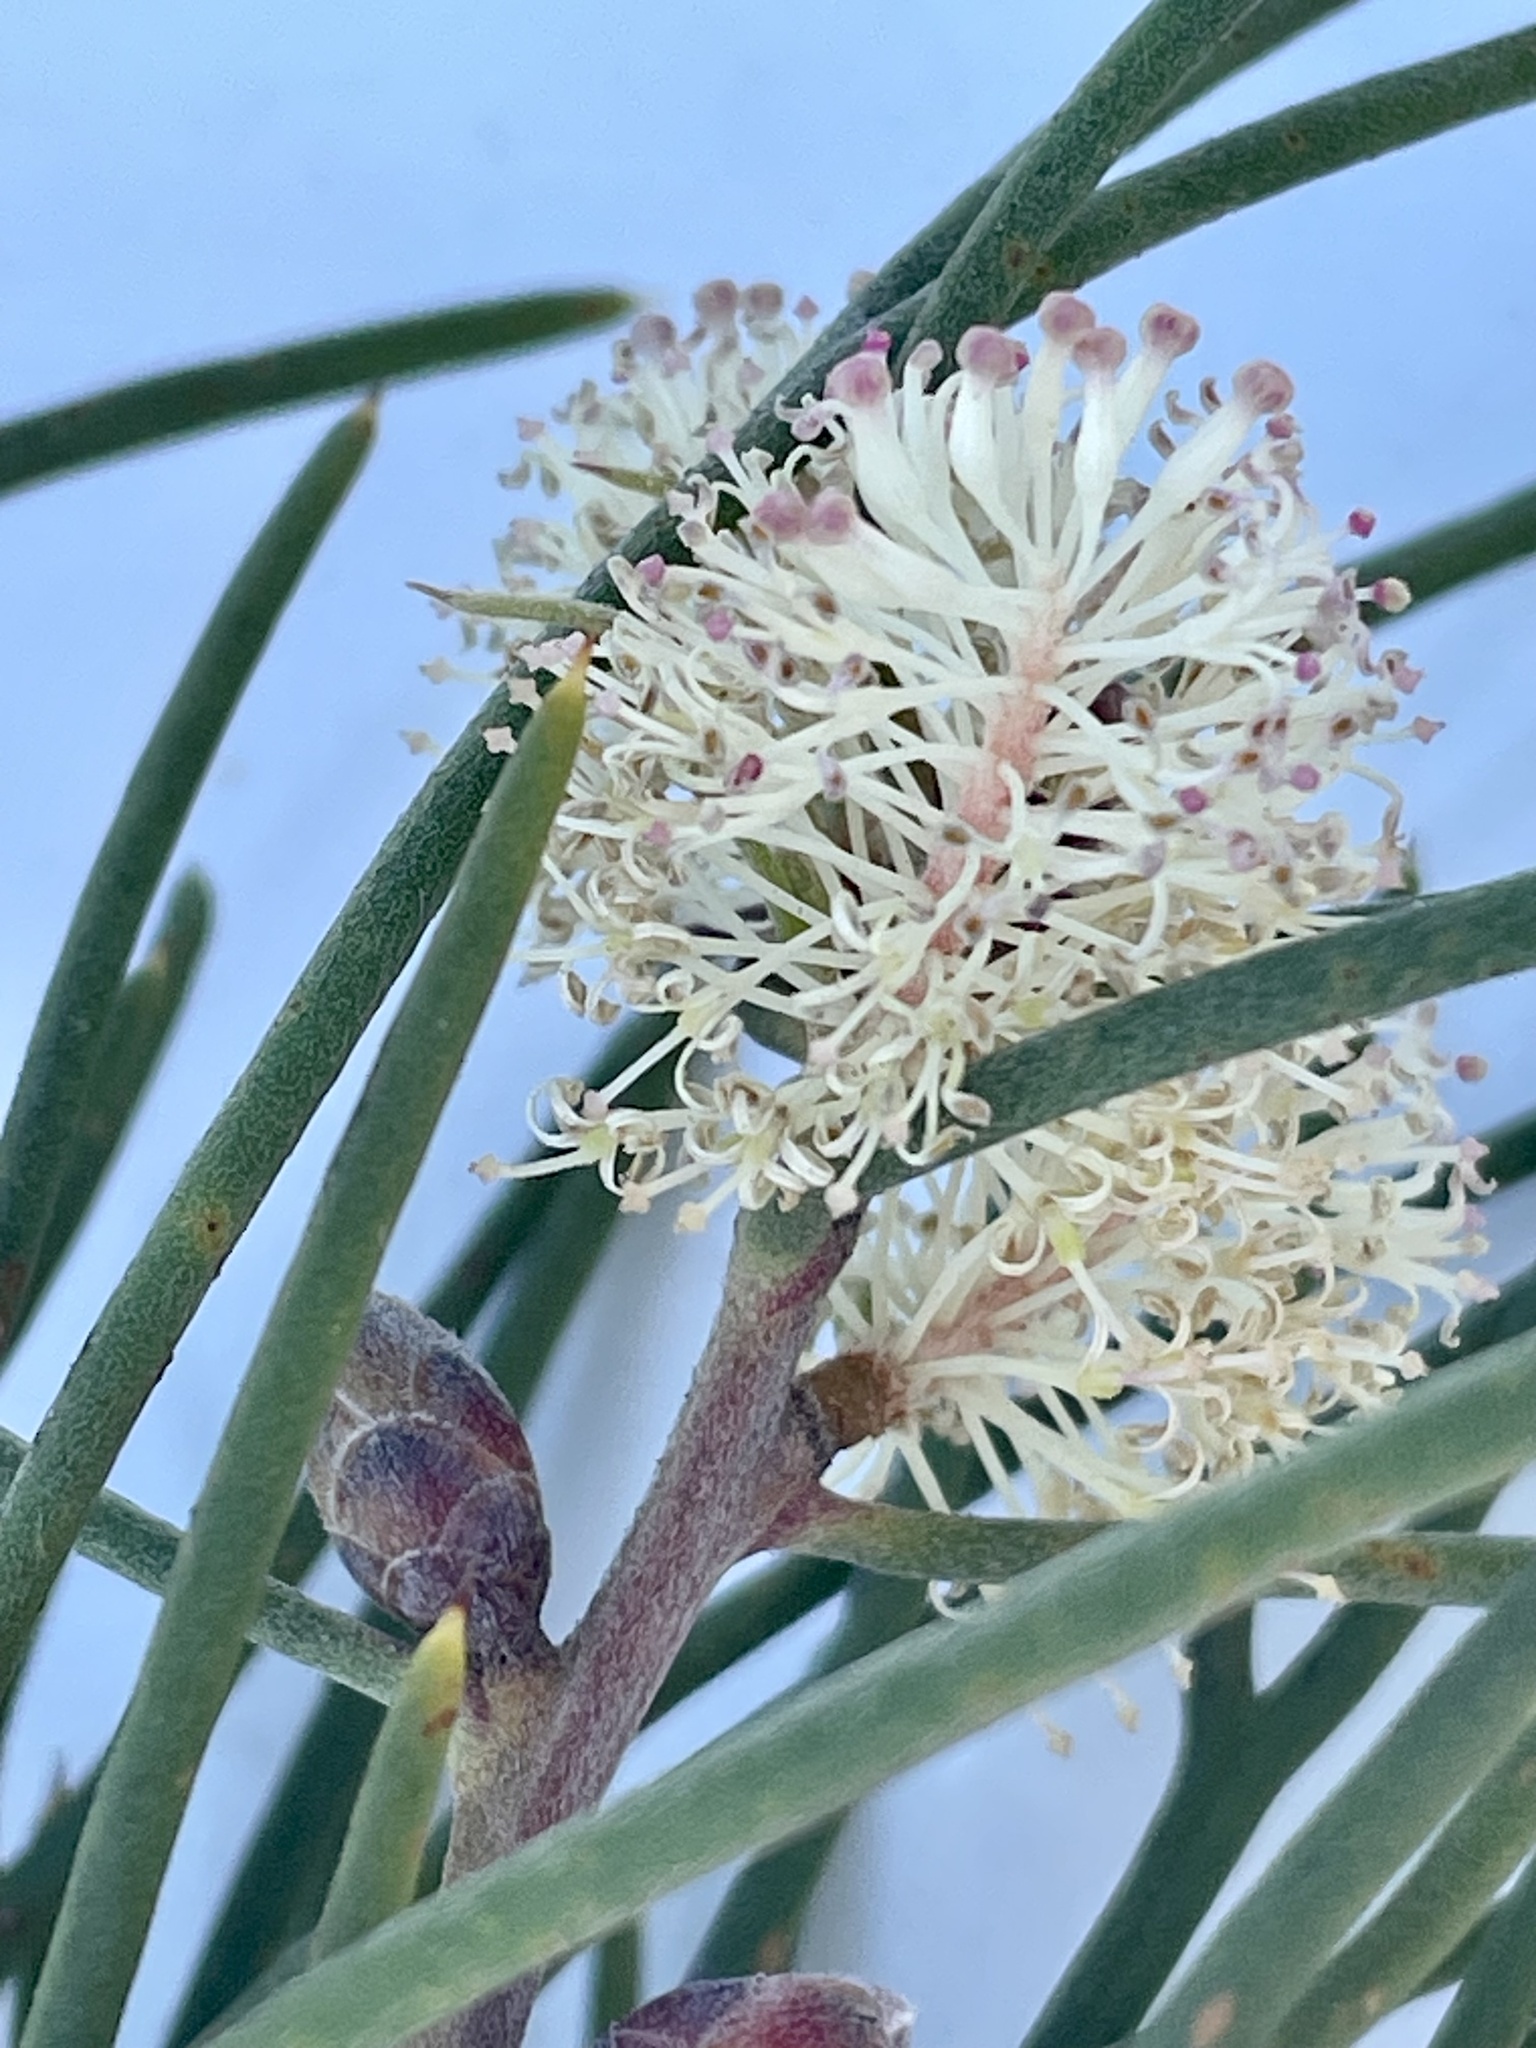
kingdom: Plantae
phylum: Tracheophyta
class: Magnoliopsida
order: Proteales
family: Proteaceae
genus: Hakea
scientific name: Hakea drupacea
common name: Sweet hakea
